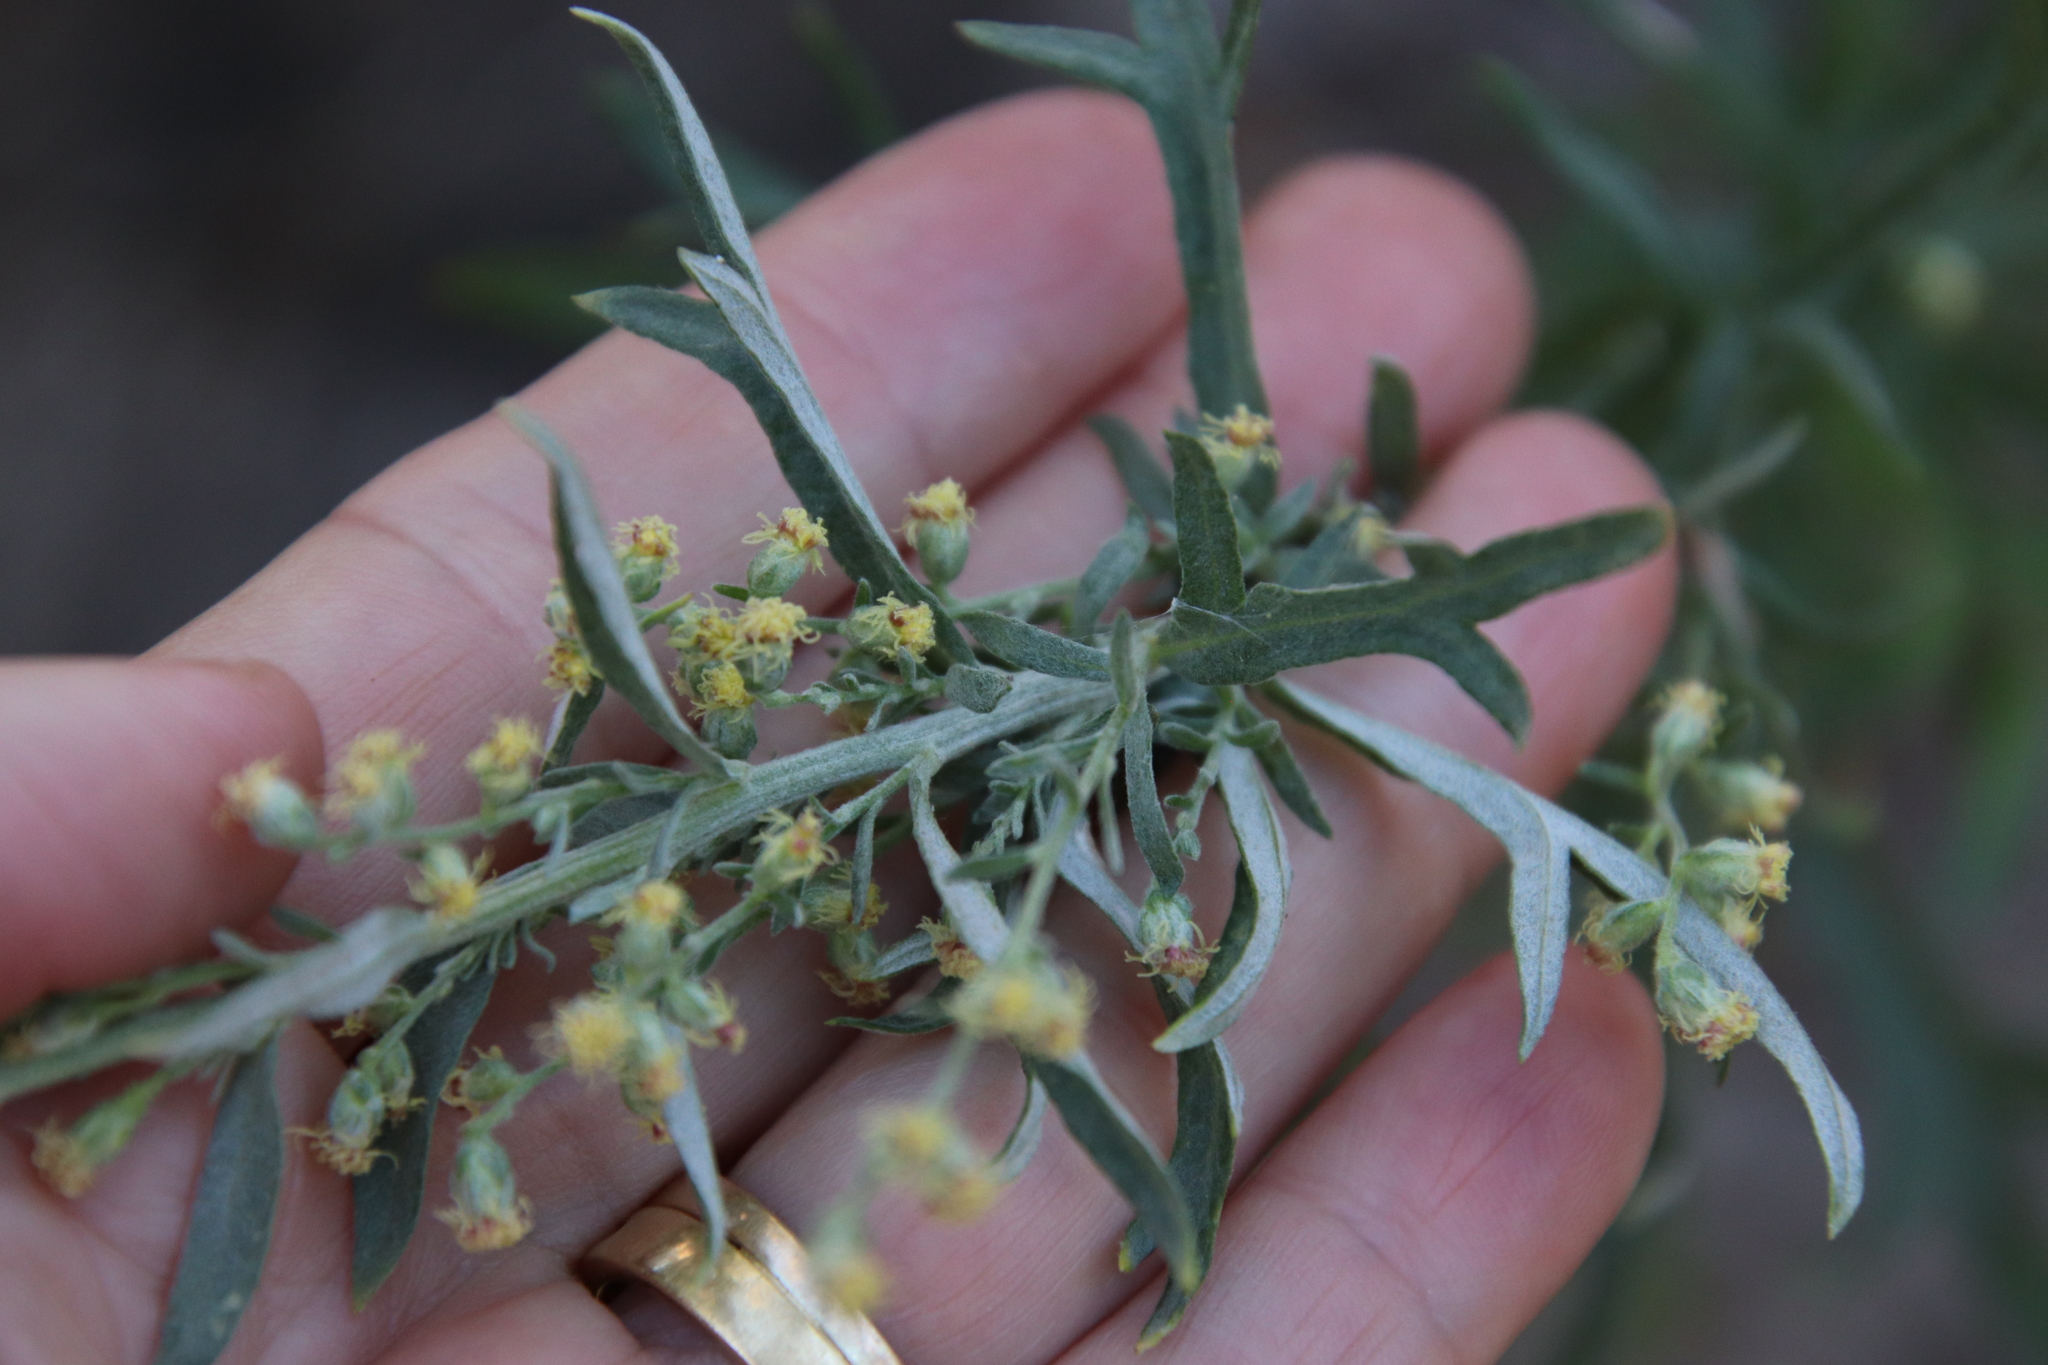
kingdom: Plantae
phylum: Tracheophyta
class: Magnoliopsida
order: Asterales
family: Asteraceae
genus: Artemisia
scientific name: Artemisia ludoviciana
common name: Western mugwort
